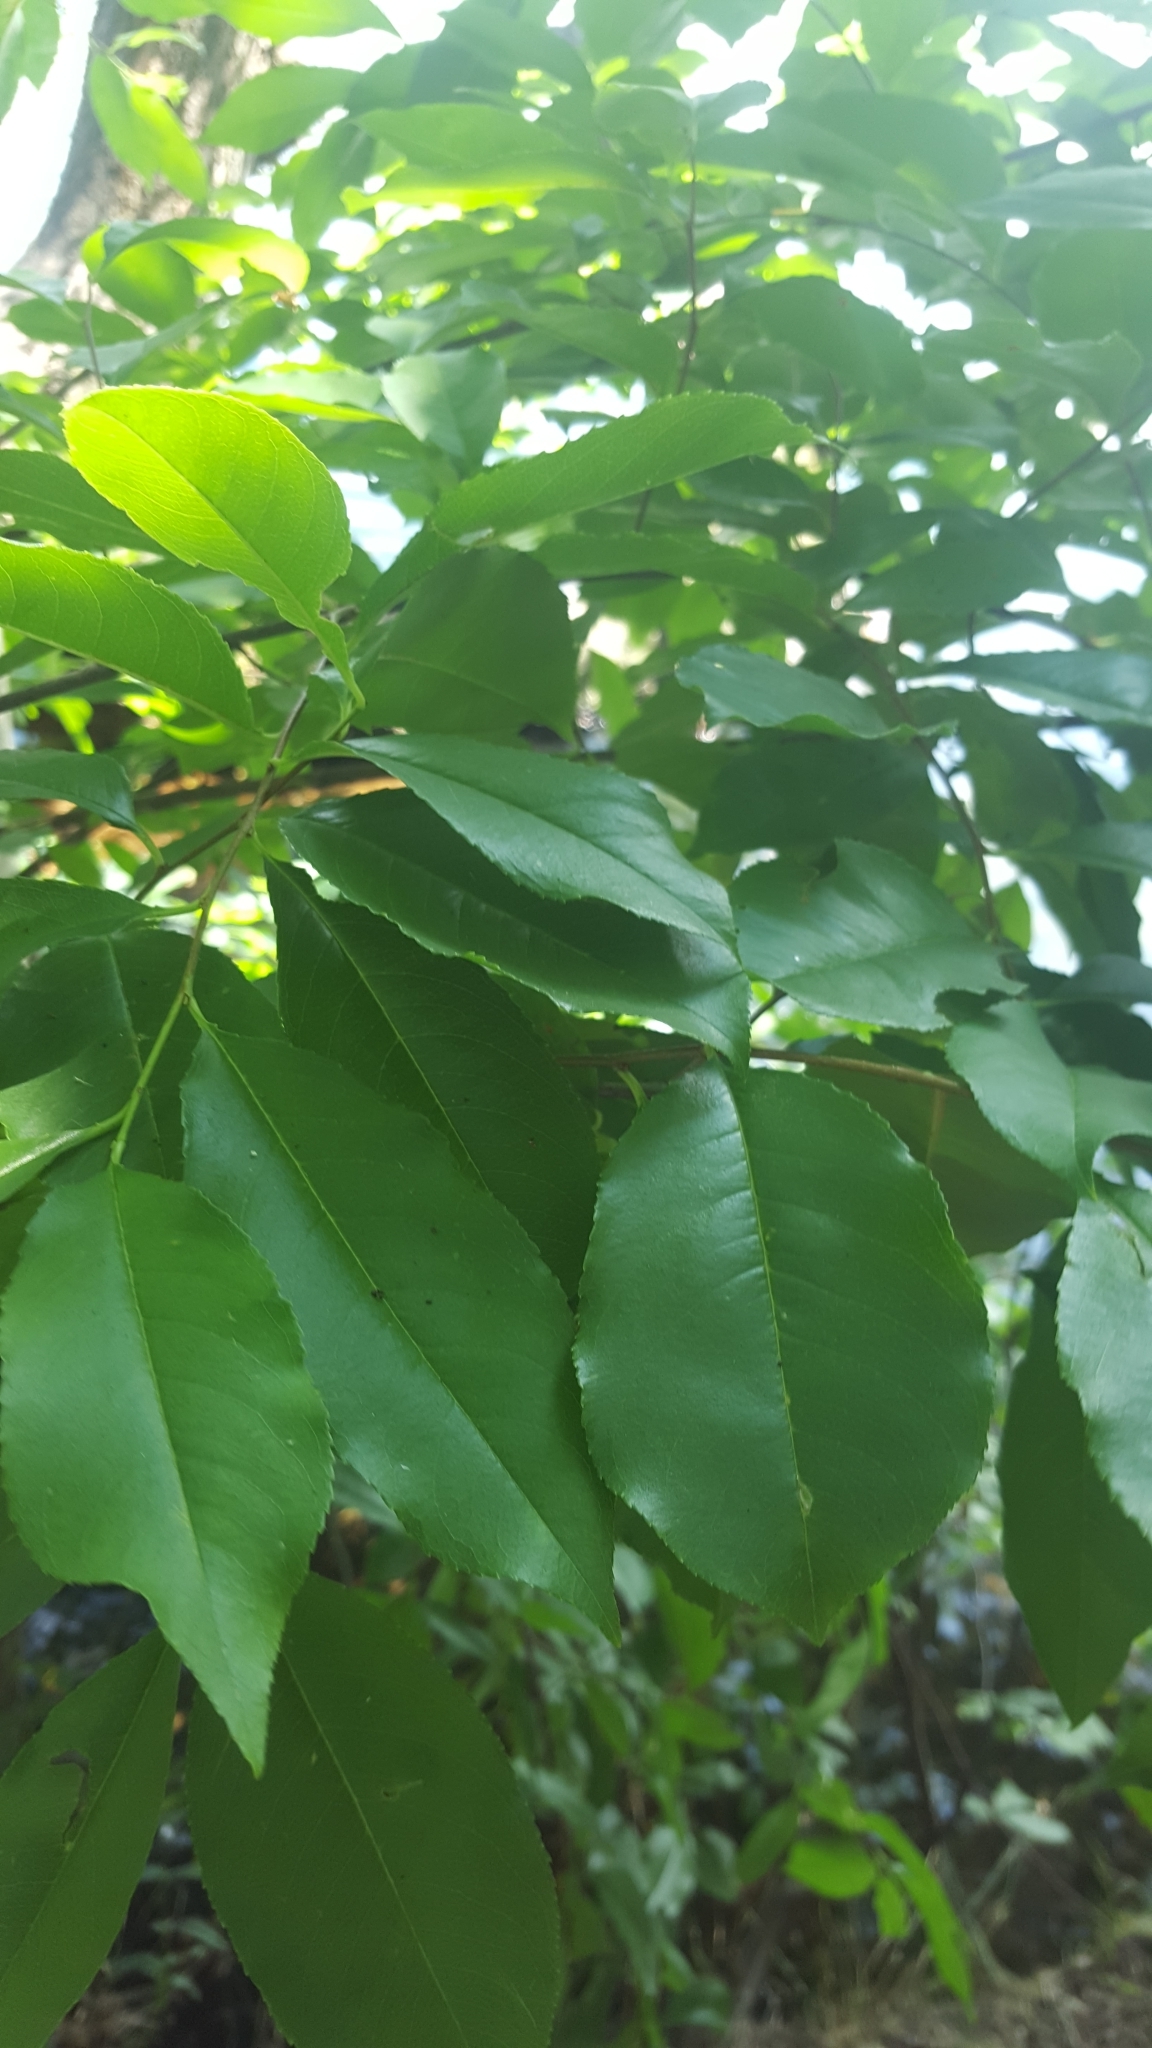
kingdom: Plantae
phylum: Tracheophyta
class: Magnoliopsida
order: Rosales
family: Rosaceae
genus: Prunus
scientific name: Prunus serotina
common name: Black cherry
